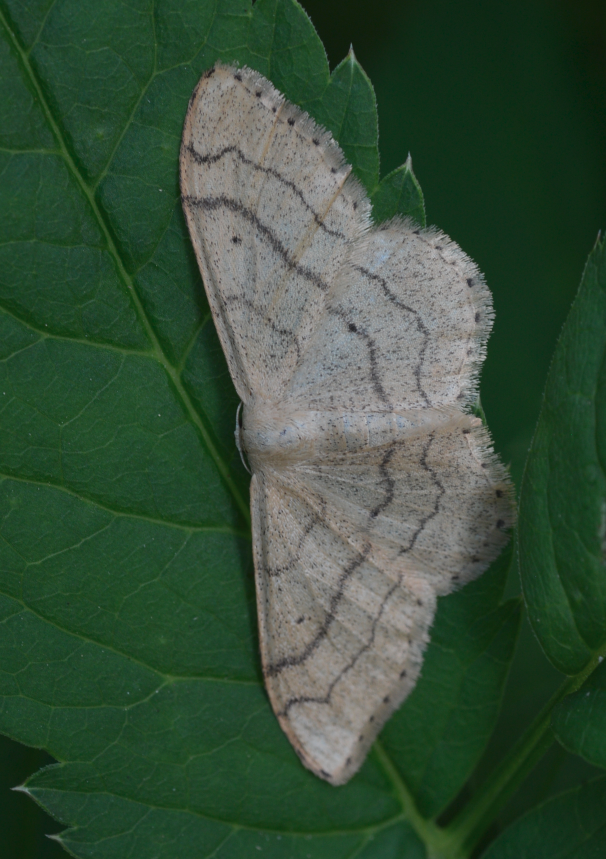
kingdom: Animalia
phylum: Arthropoda
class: Insecta
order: Lepidoptera
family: Geometridae
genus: Idaea
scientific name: Idaea aversata
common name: Riband wave
